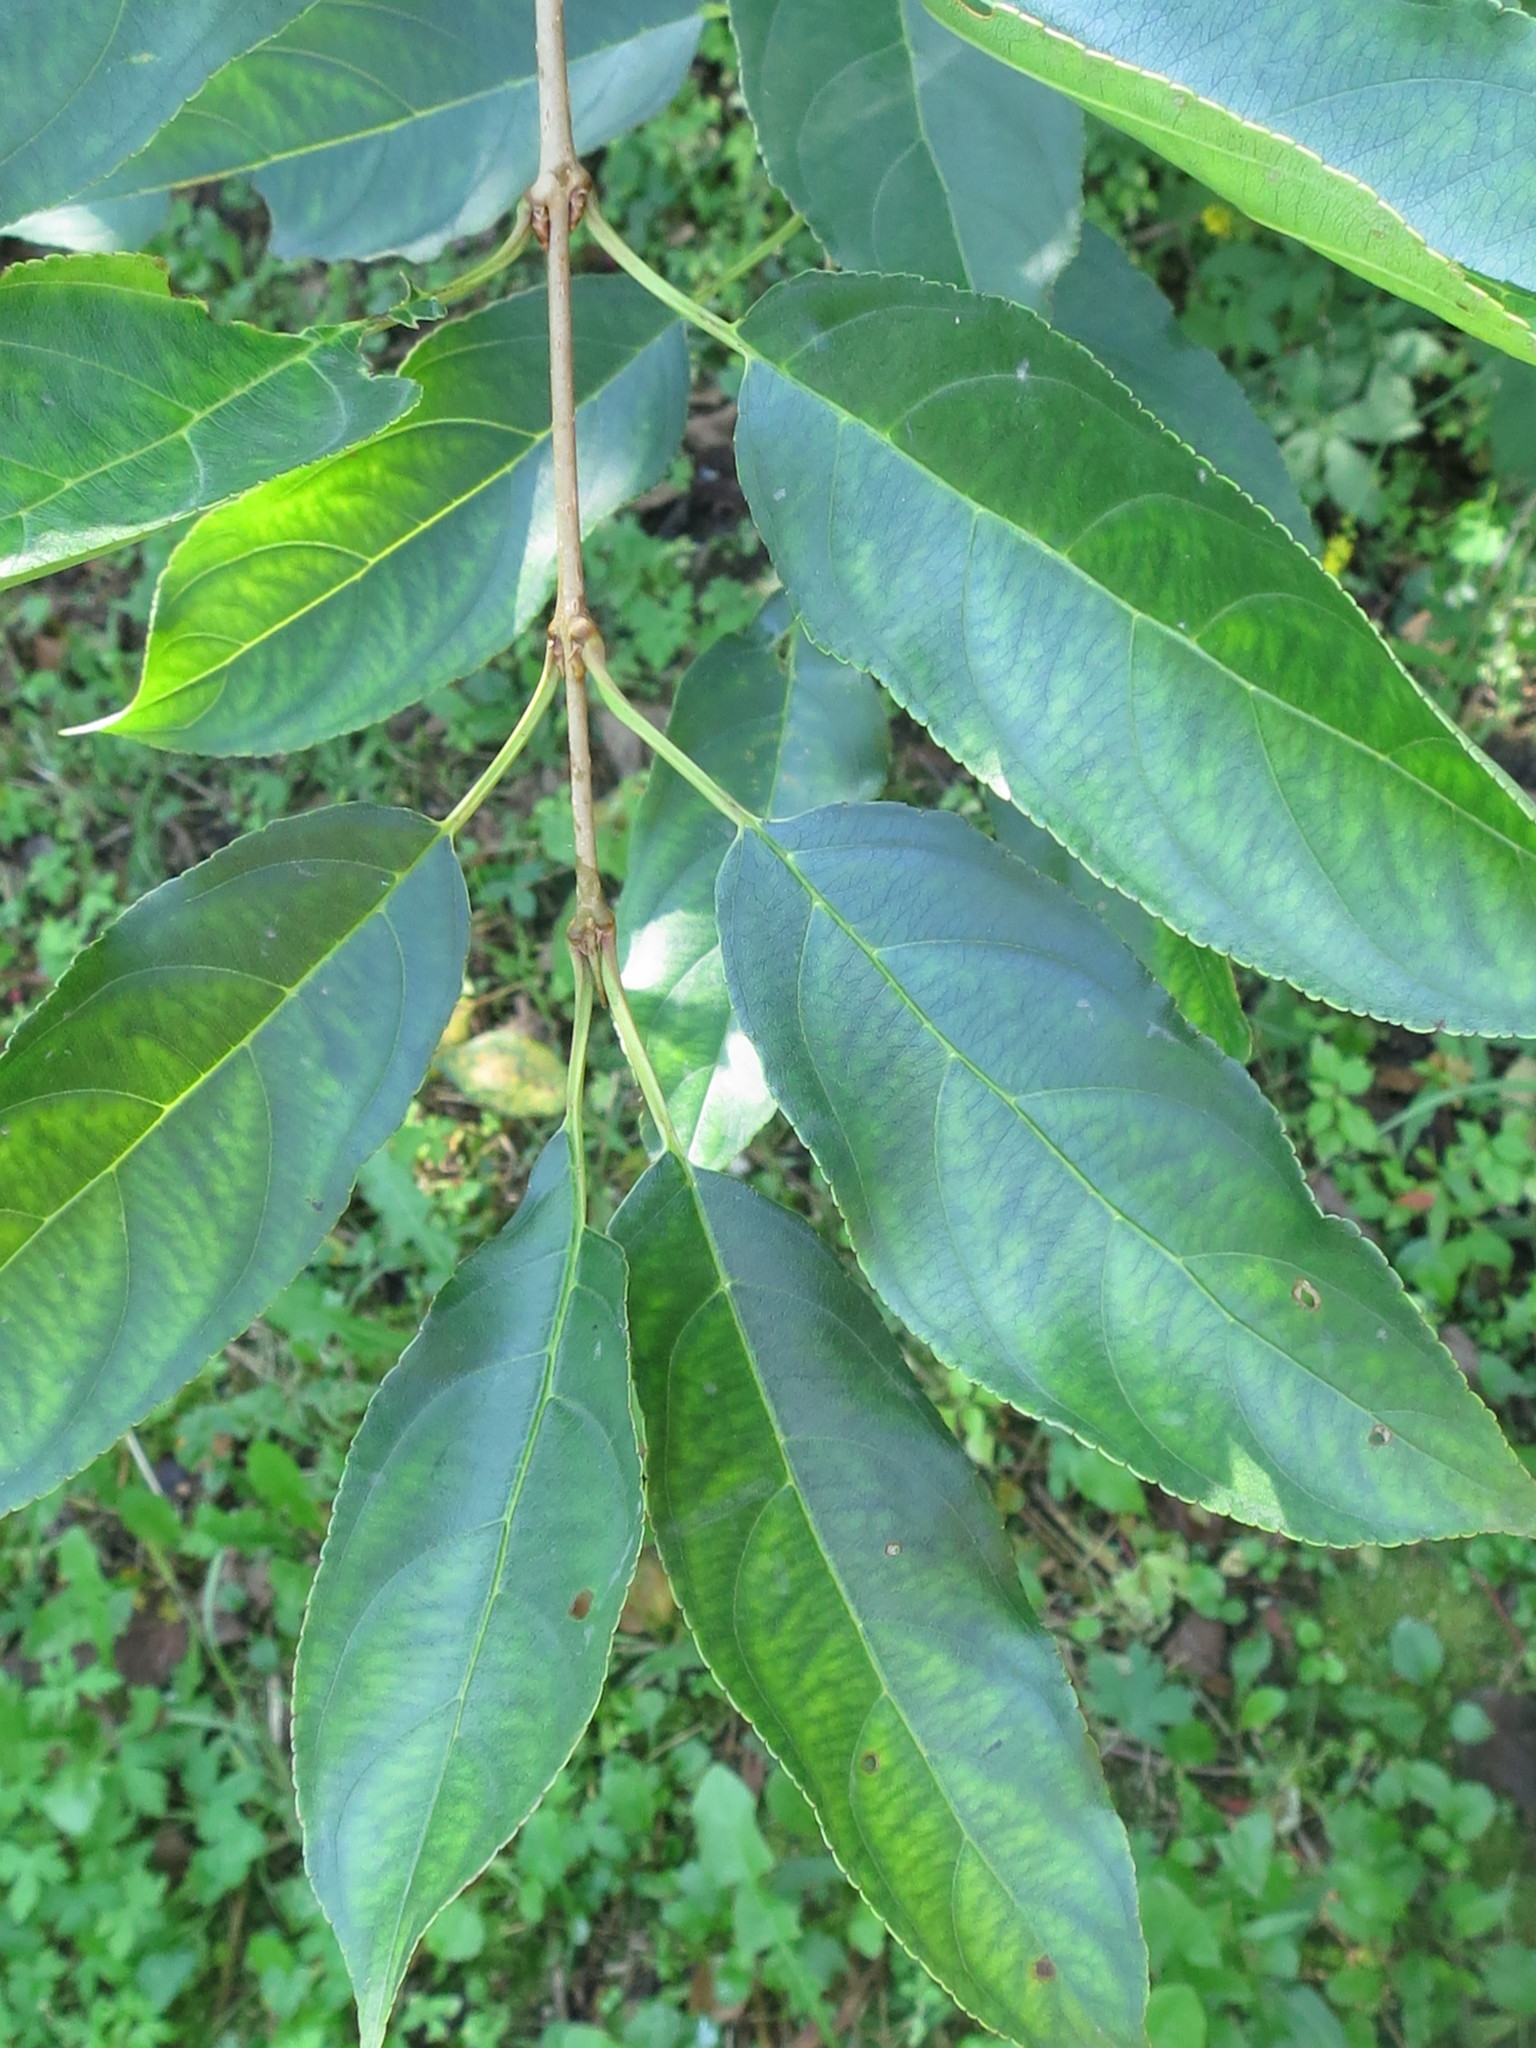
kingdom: Plantae
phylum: Tracheophyta
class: Magnoliopsida
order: Rosales
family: Rhamnaceae
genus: Rhamnus
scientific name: Rhamnus ussuriensis
